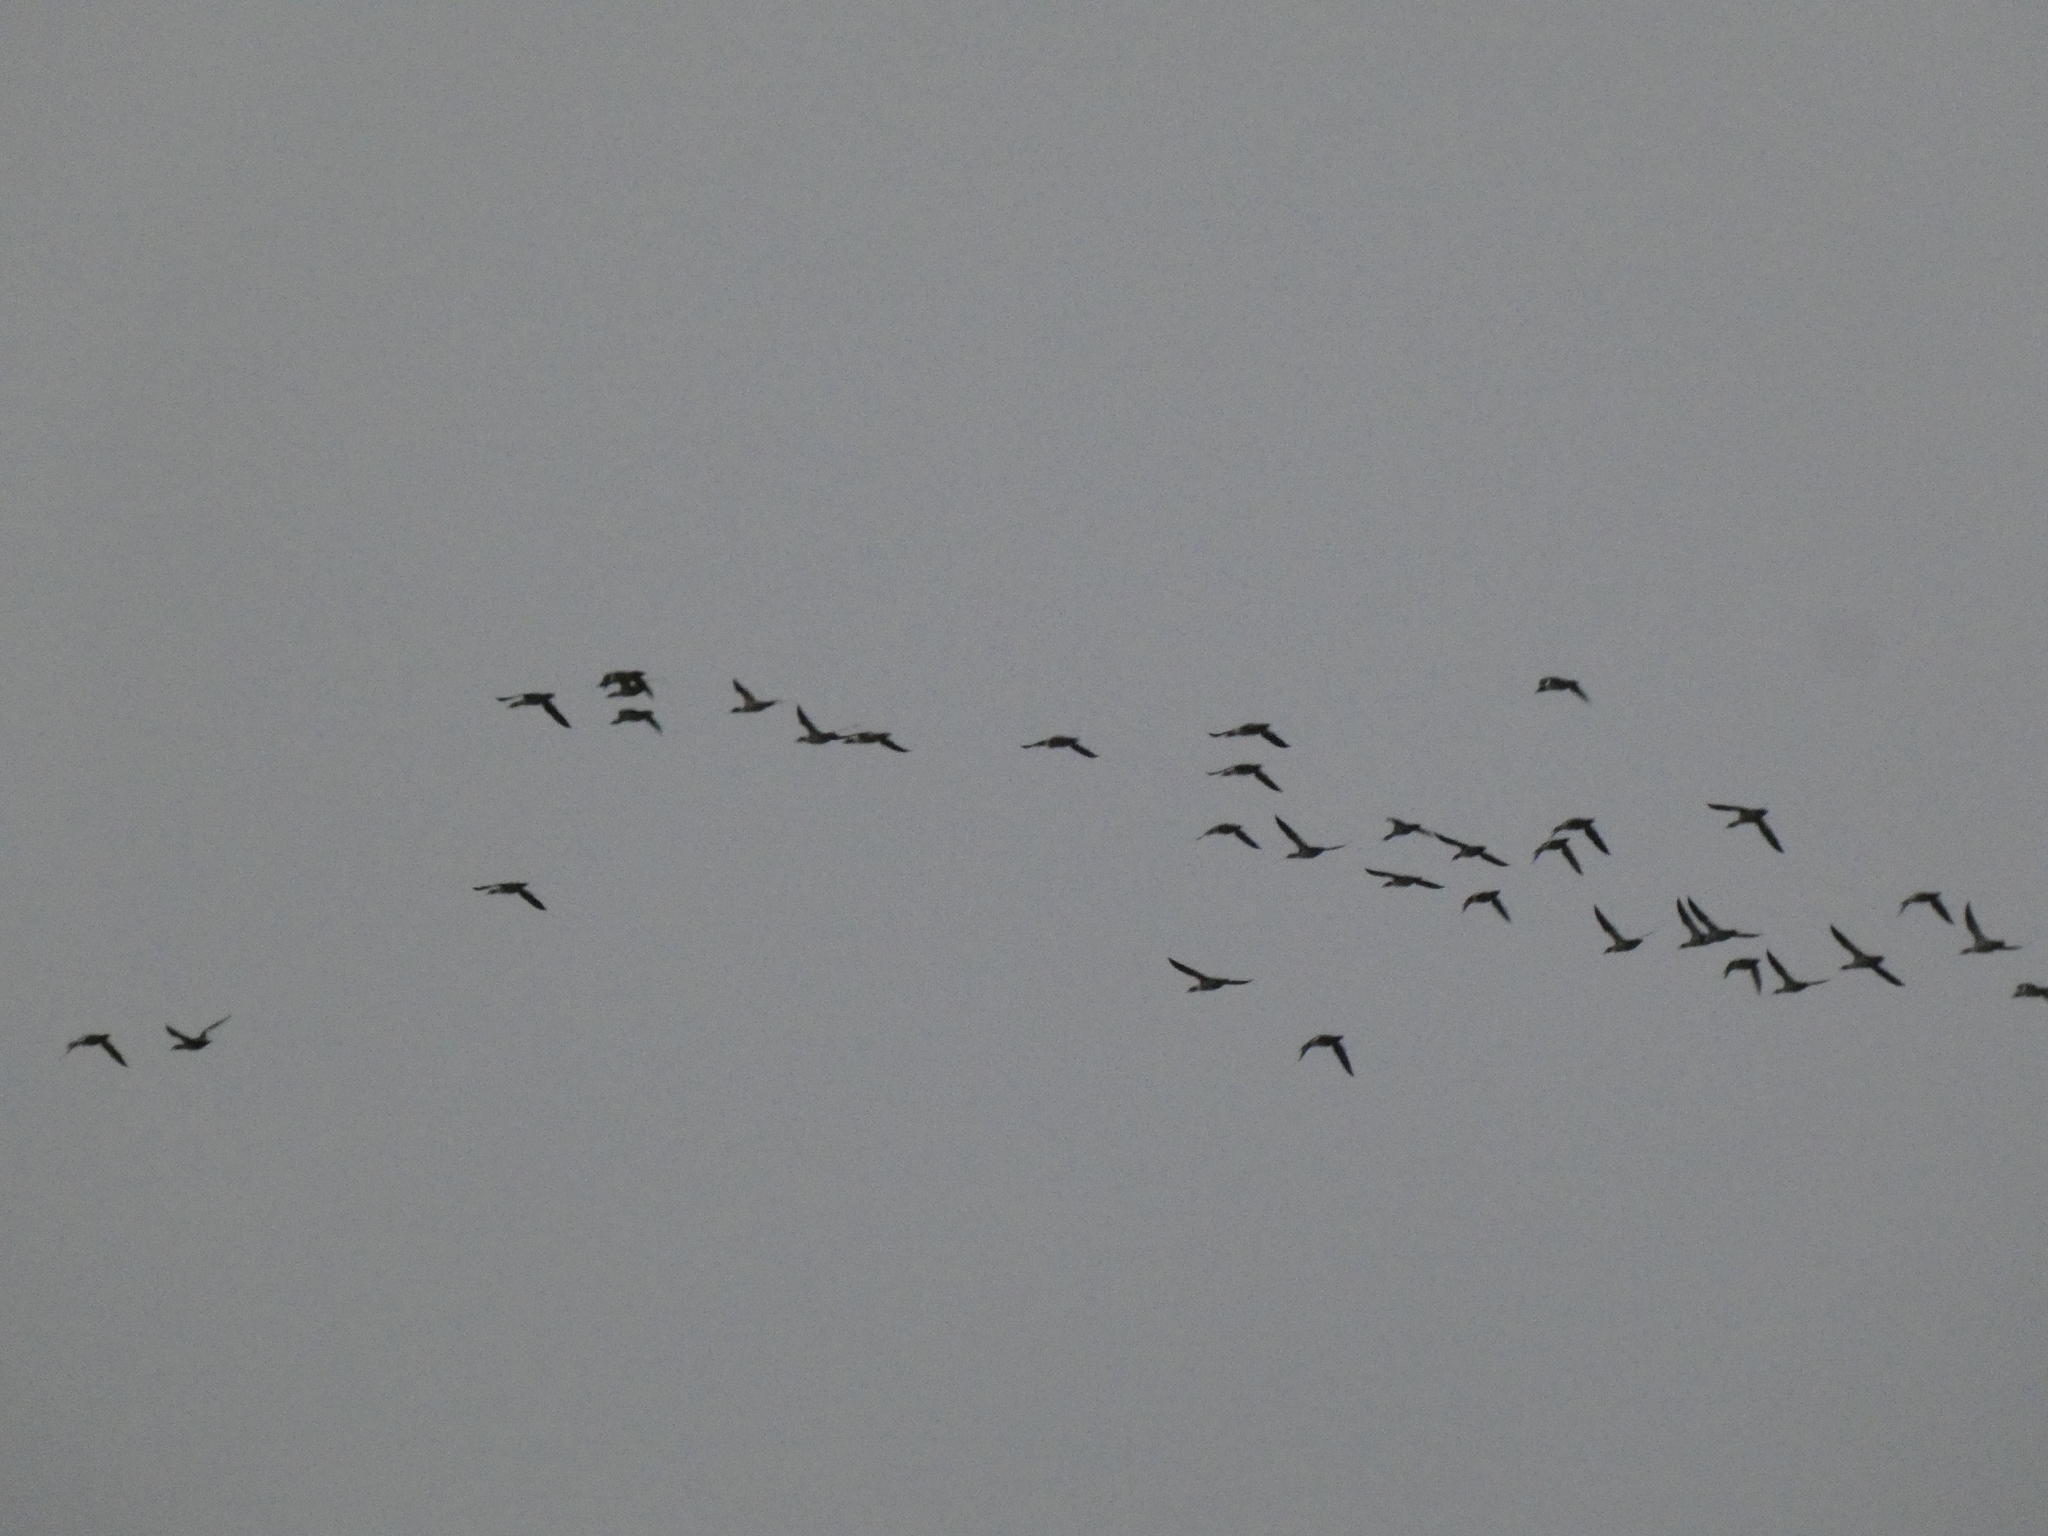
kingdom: Animalia
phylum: Chordata
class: Aves
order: Anseriformes
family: Anatidae
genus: Mergus
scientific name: Mergus merganser
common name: Common merganser
